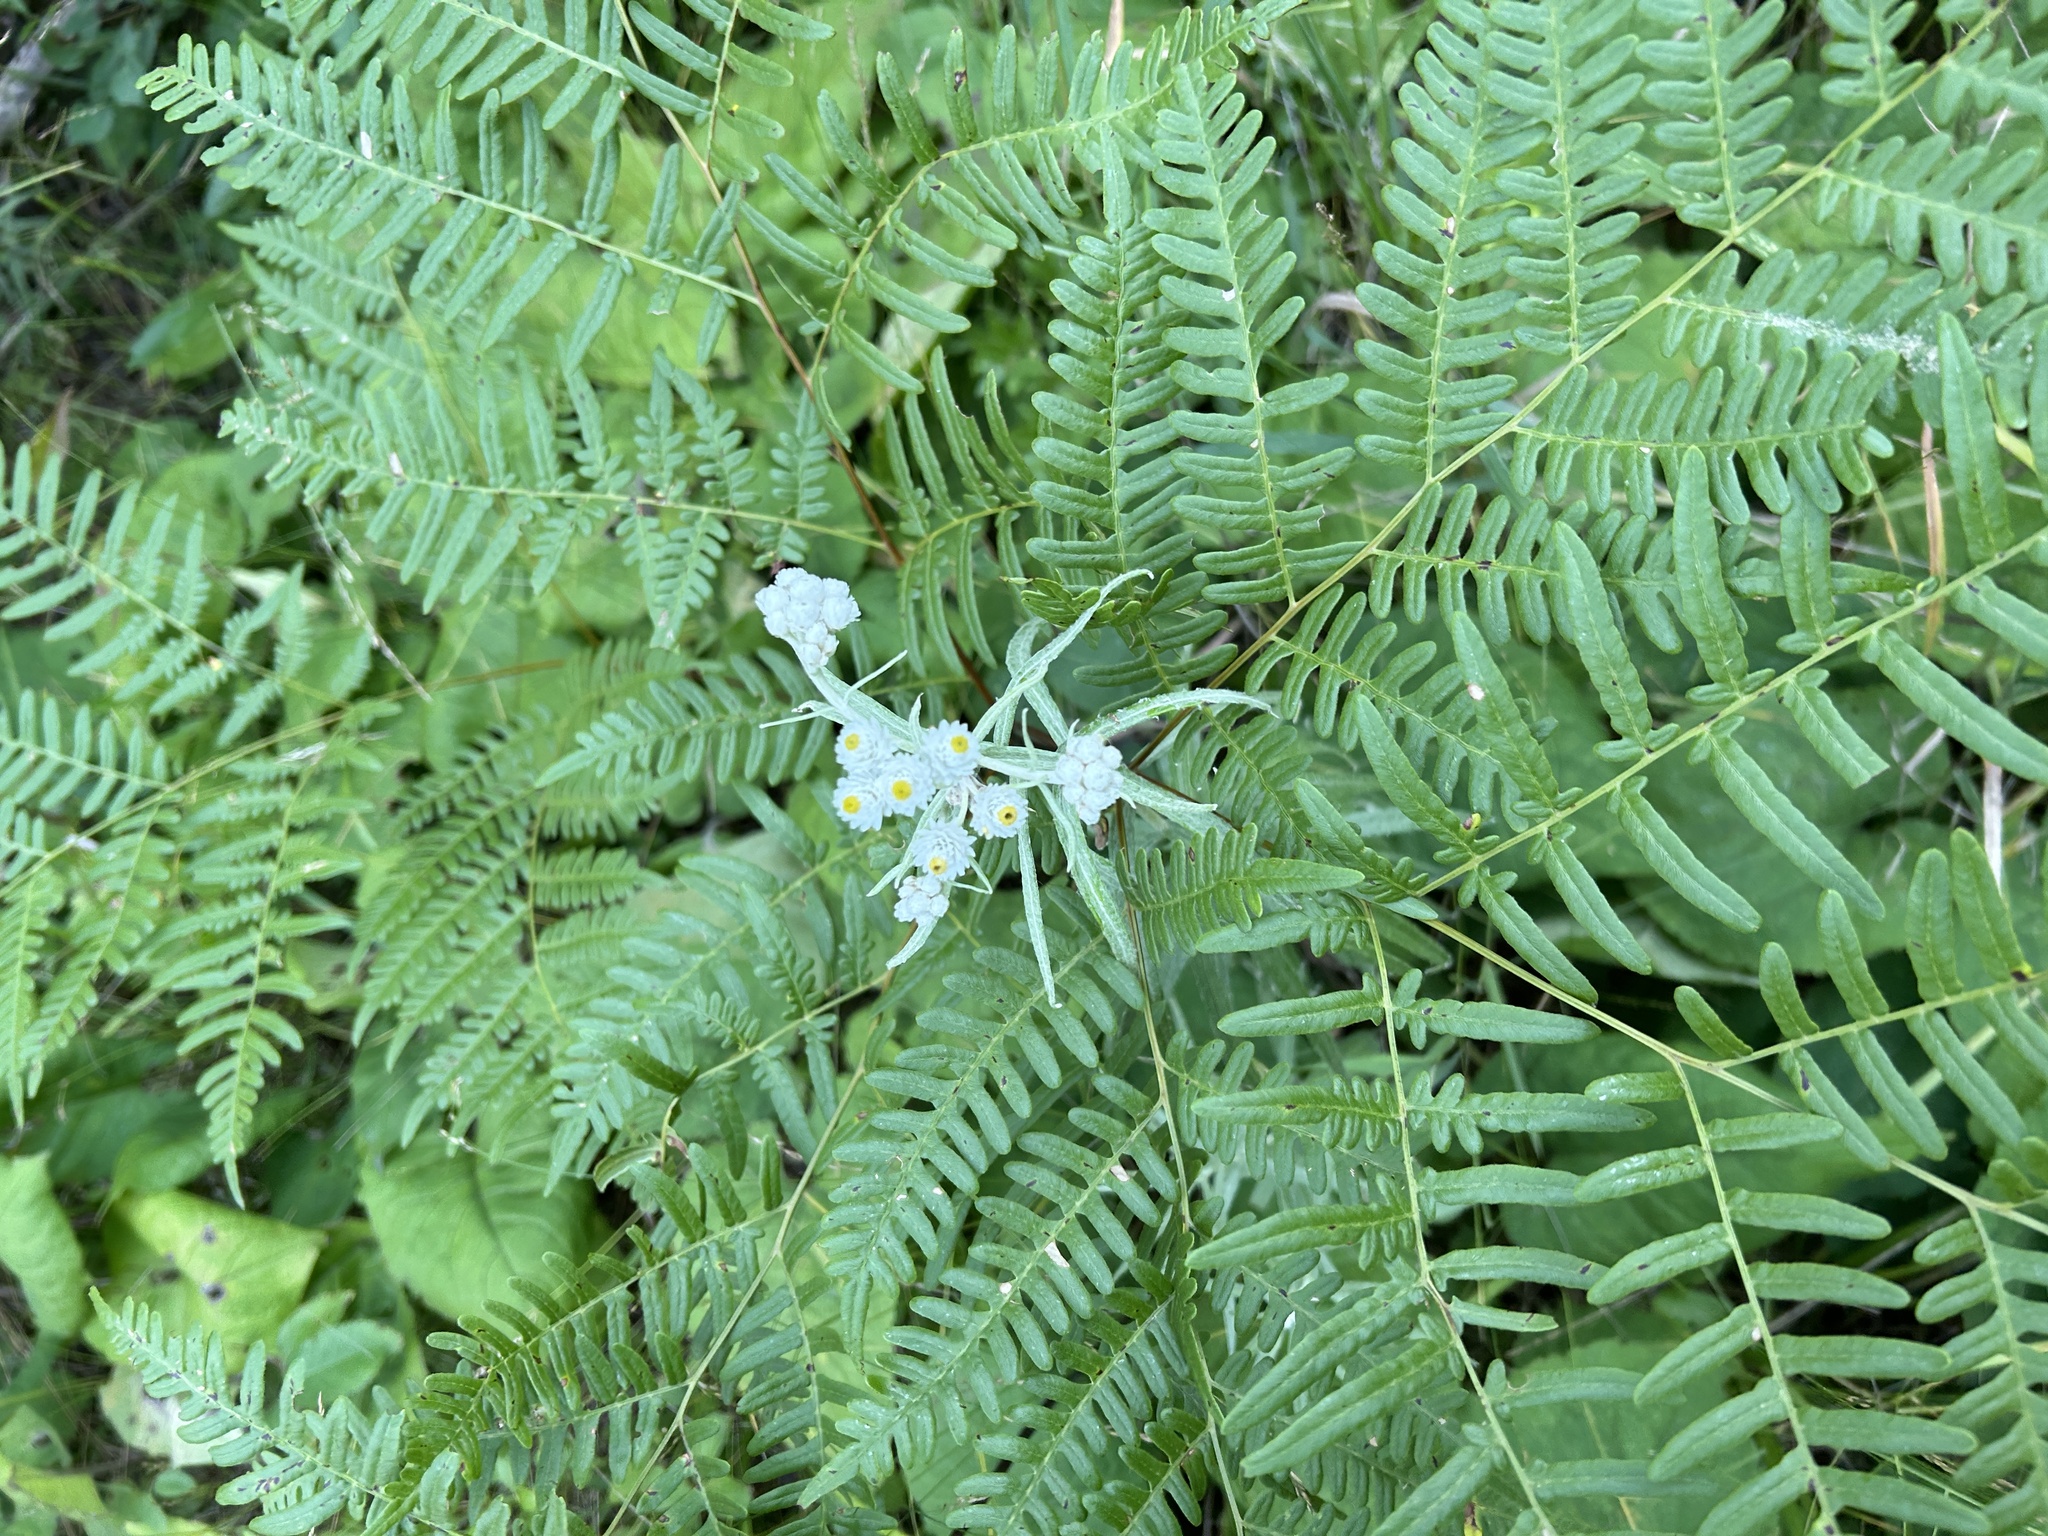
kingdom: Plantae
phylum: Tracheophyta
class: Magnoliopsida
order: Asterales
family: Asteraceae
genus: Anaphalis
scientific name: Anaphalis margaritacea
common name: Pearly everlasting
